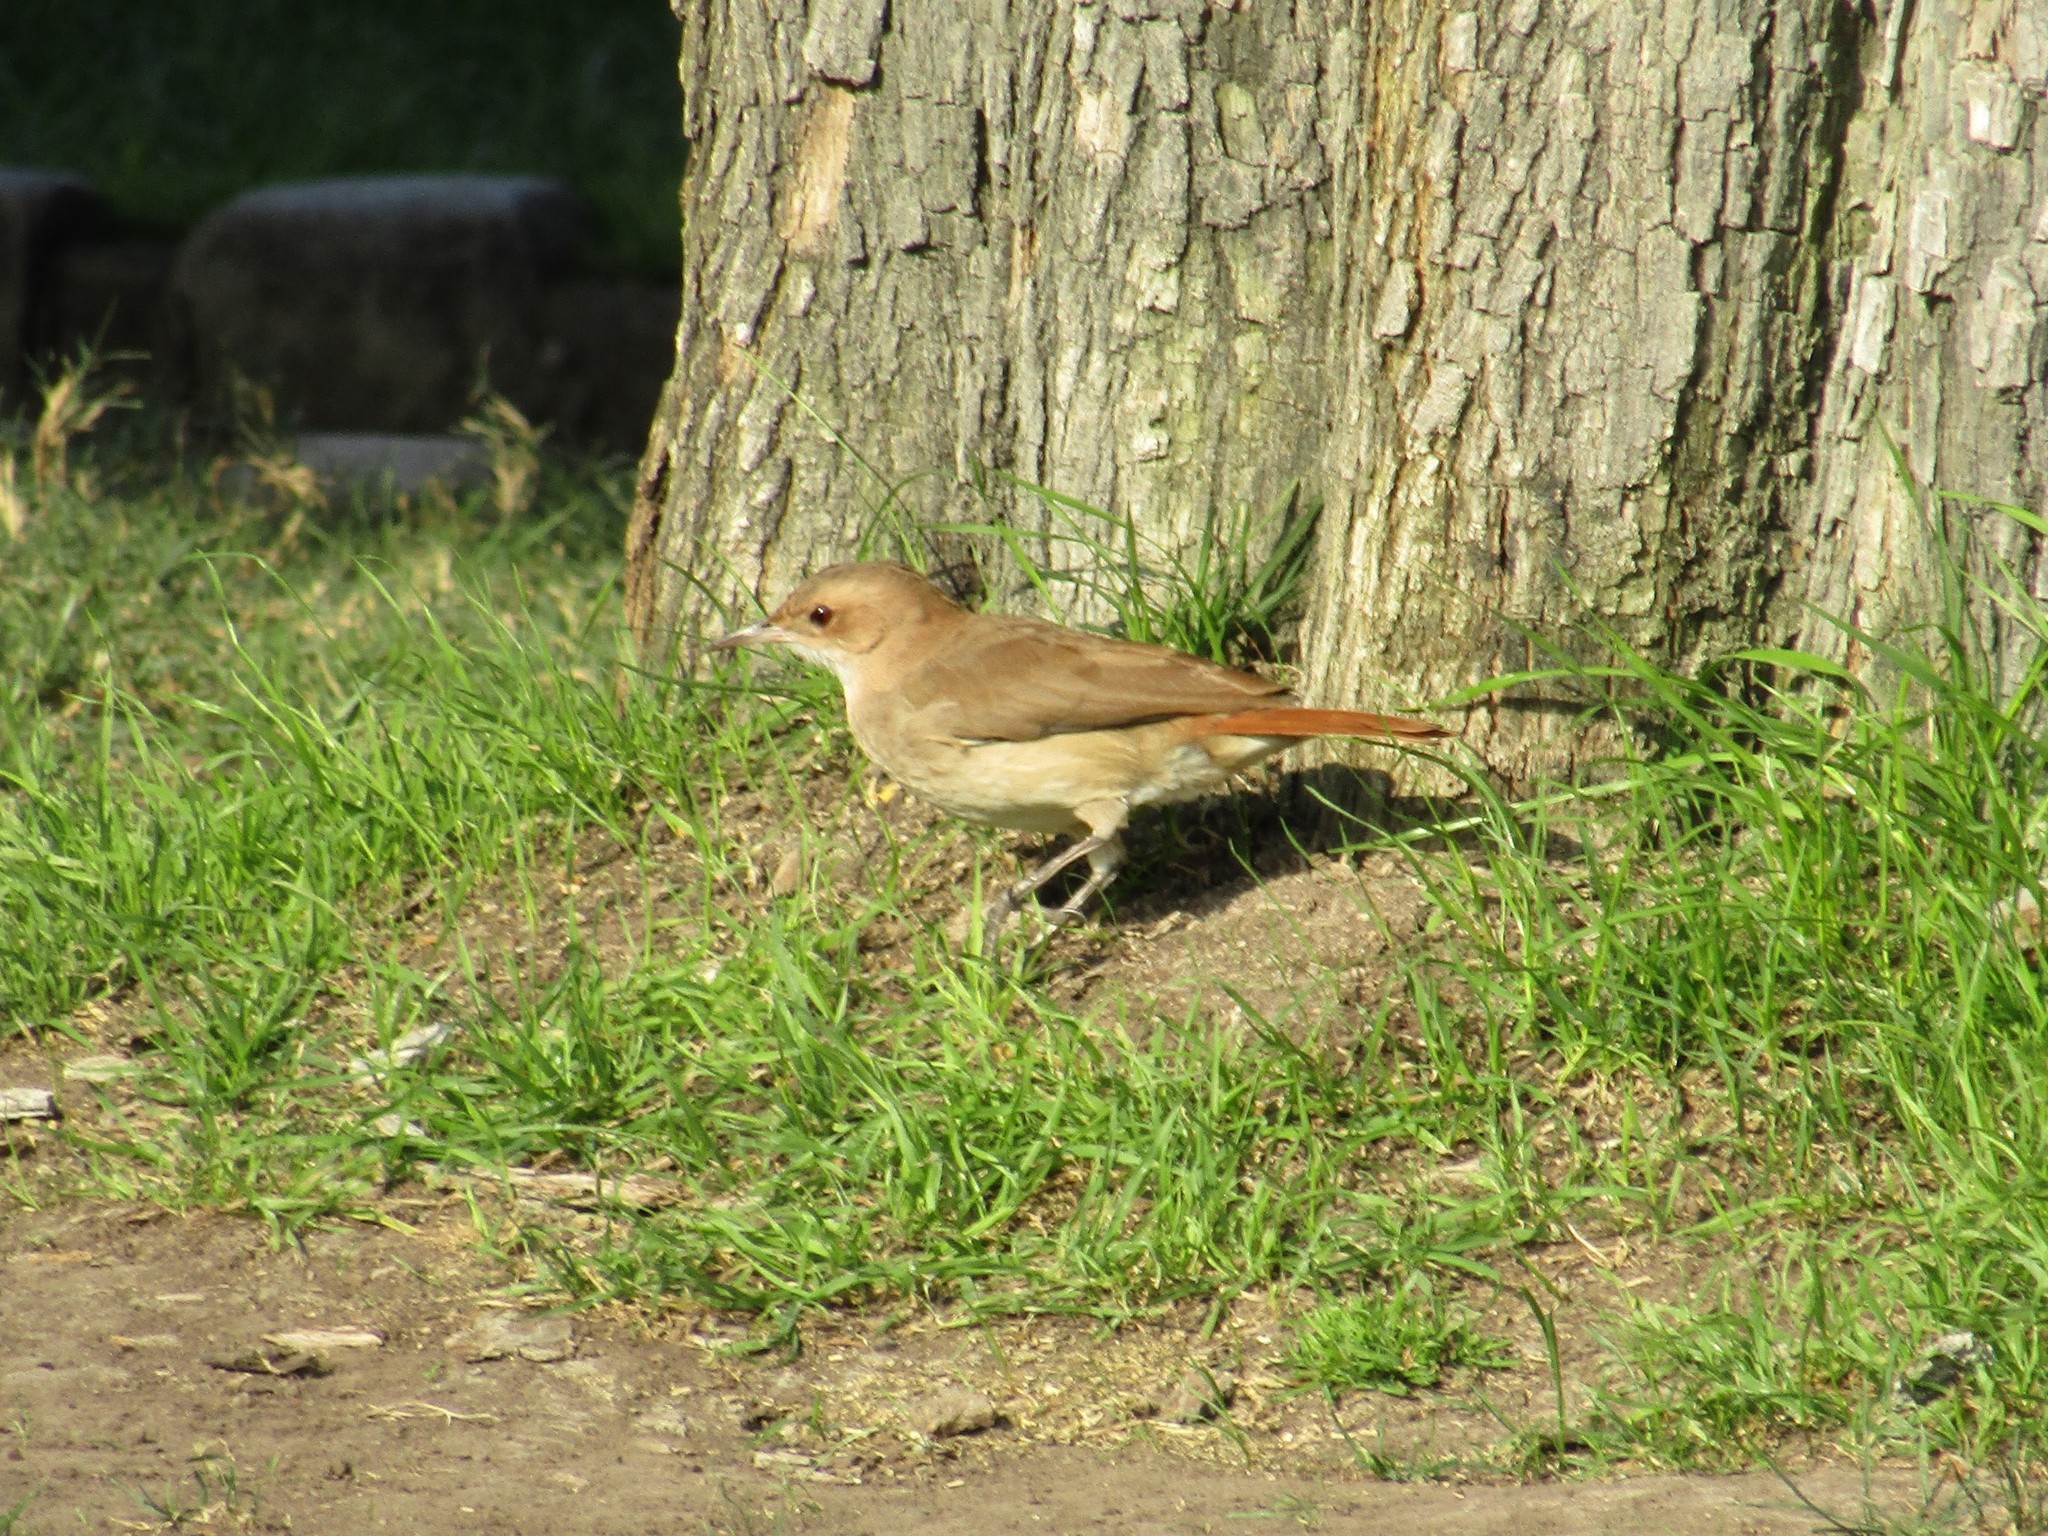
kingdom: Animalia
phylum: Chordata
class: Aves
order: Passeriformes
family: Furnariidae
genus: Furnarius
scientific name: Furnarius rufus
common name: Rufous hornero
